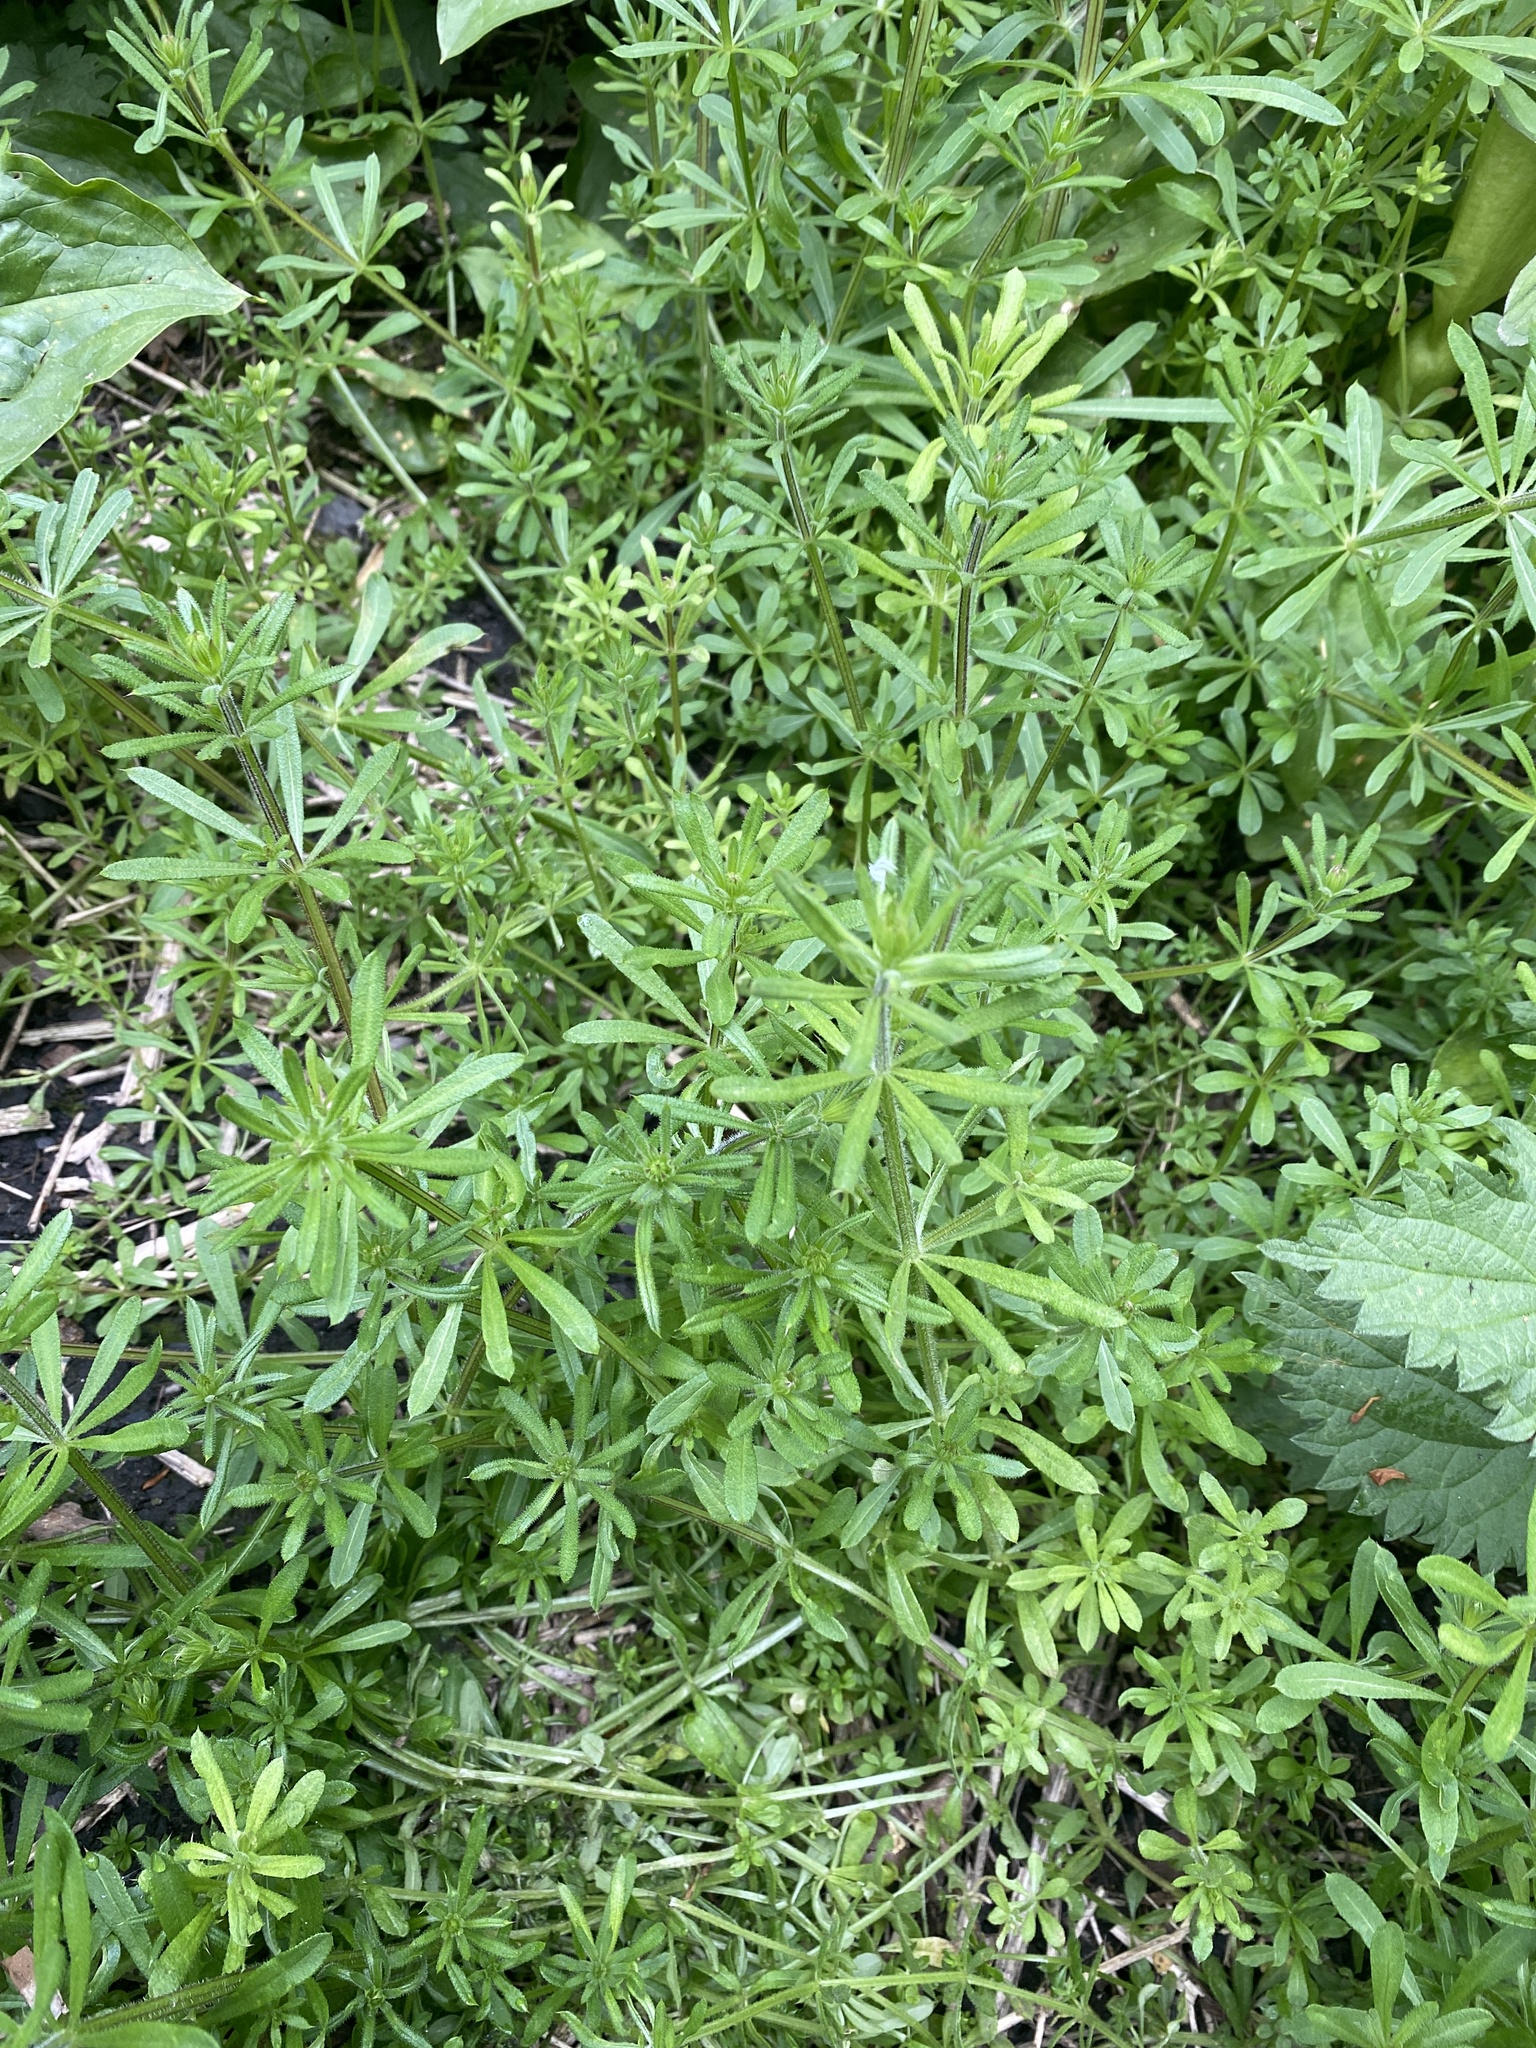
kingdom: Plantae
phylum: Tracheophyta
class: Magnoliopsida
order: Gentianales
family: Rubiaceae
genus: Galium
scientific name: Galium aparine
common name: Cleavers
